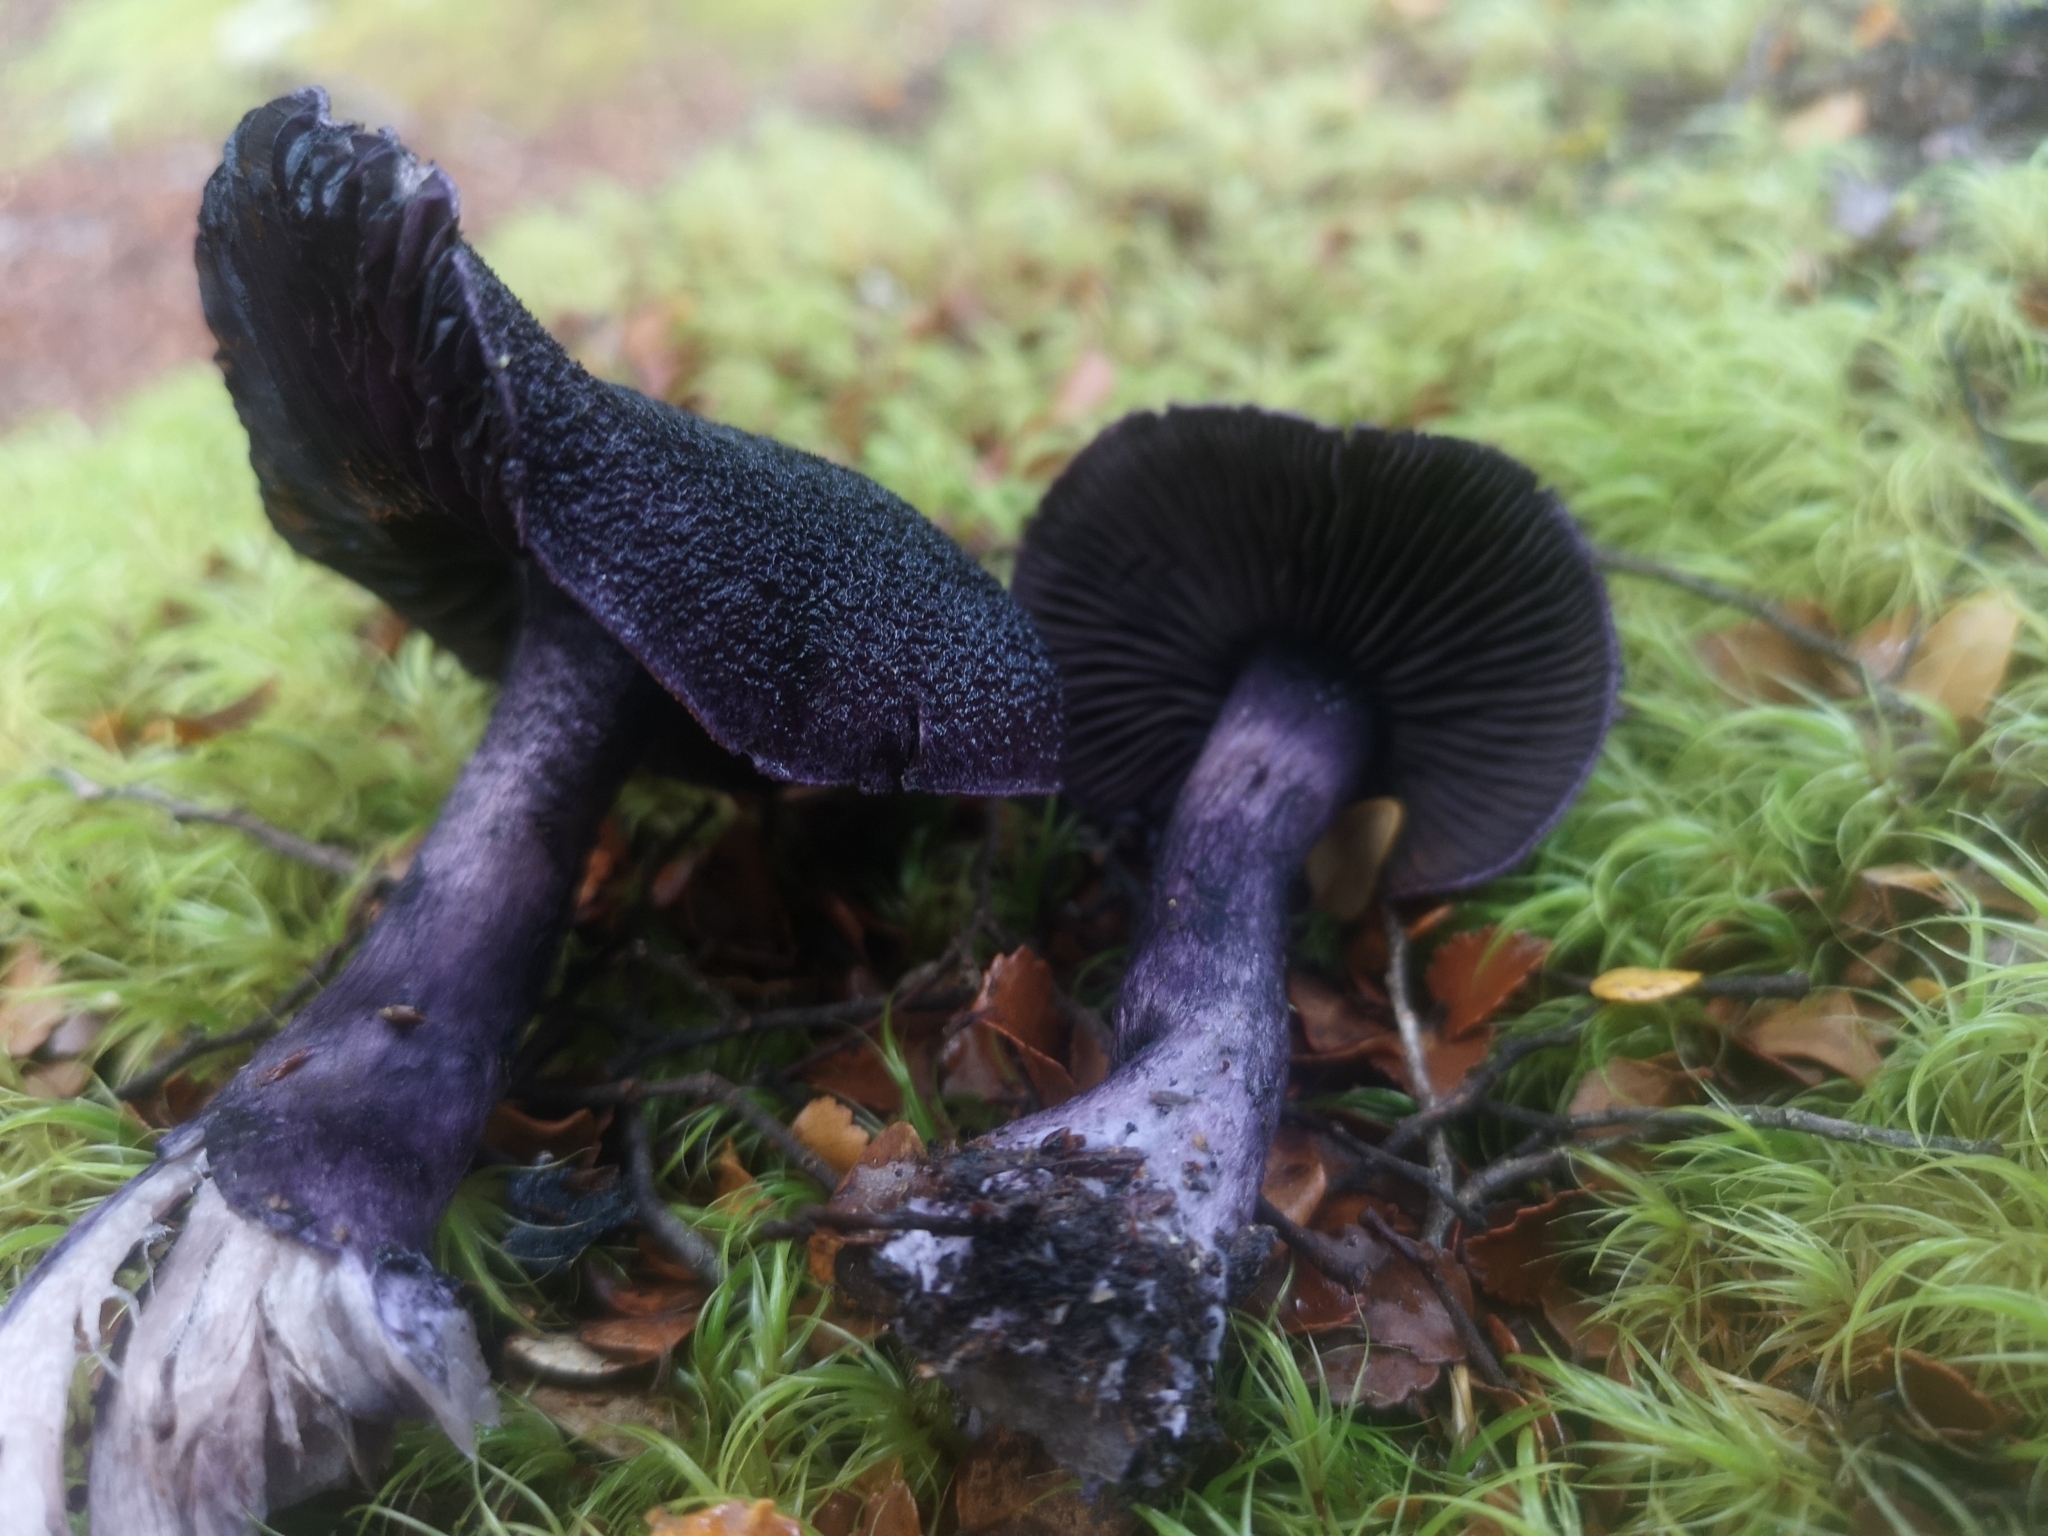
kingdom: Fungi
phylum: Basidiomycota
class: Agaricomycetes
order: Agaricales
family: Cortinariaceae
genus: Cortinarius
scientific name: Cortinarius carneipallidus
